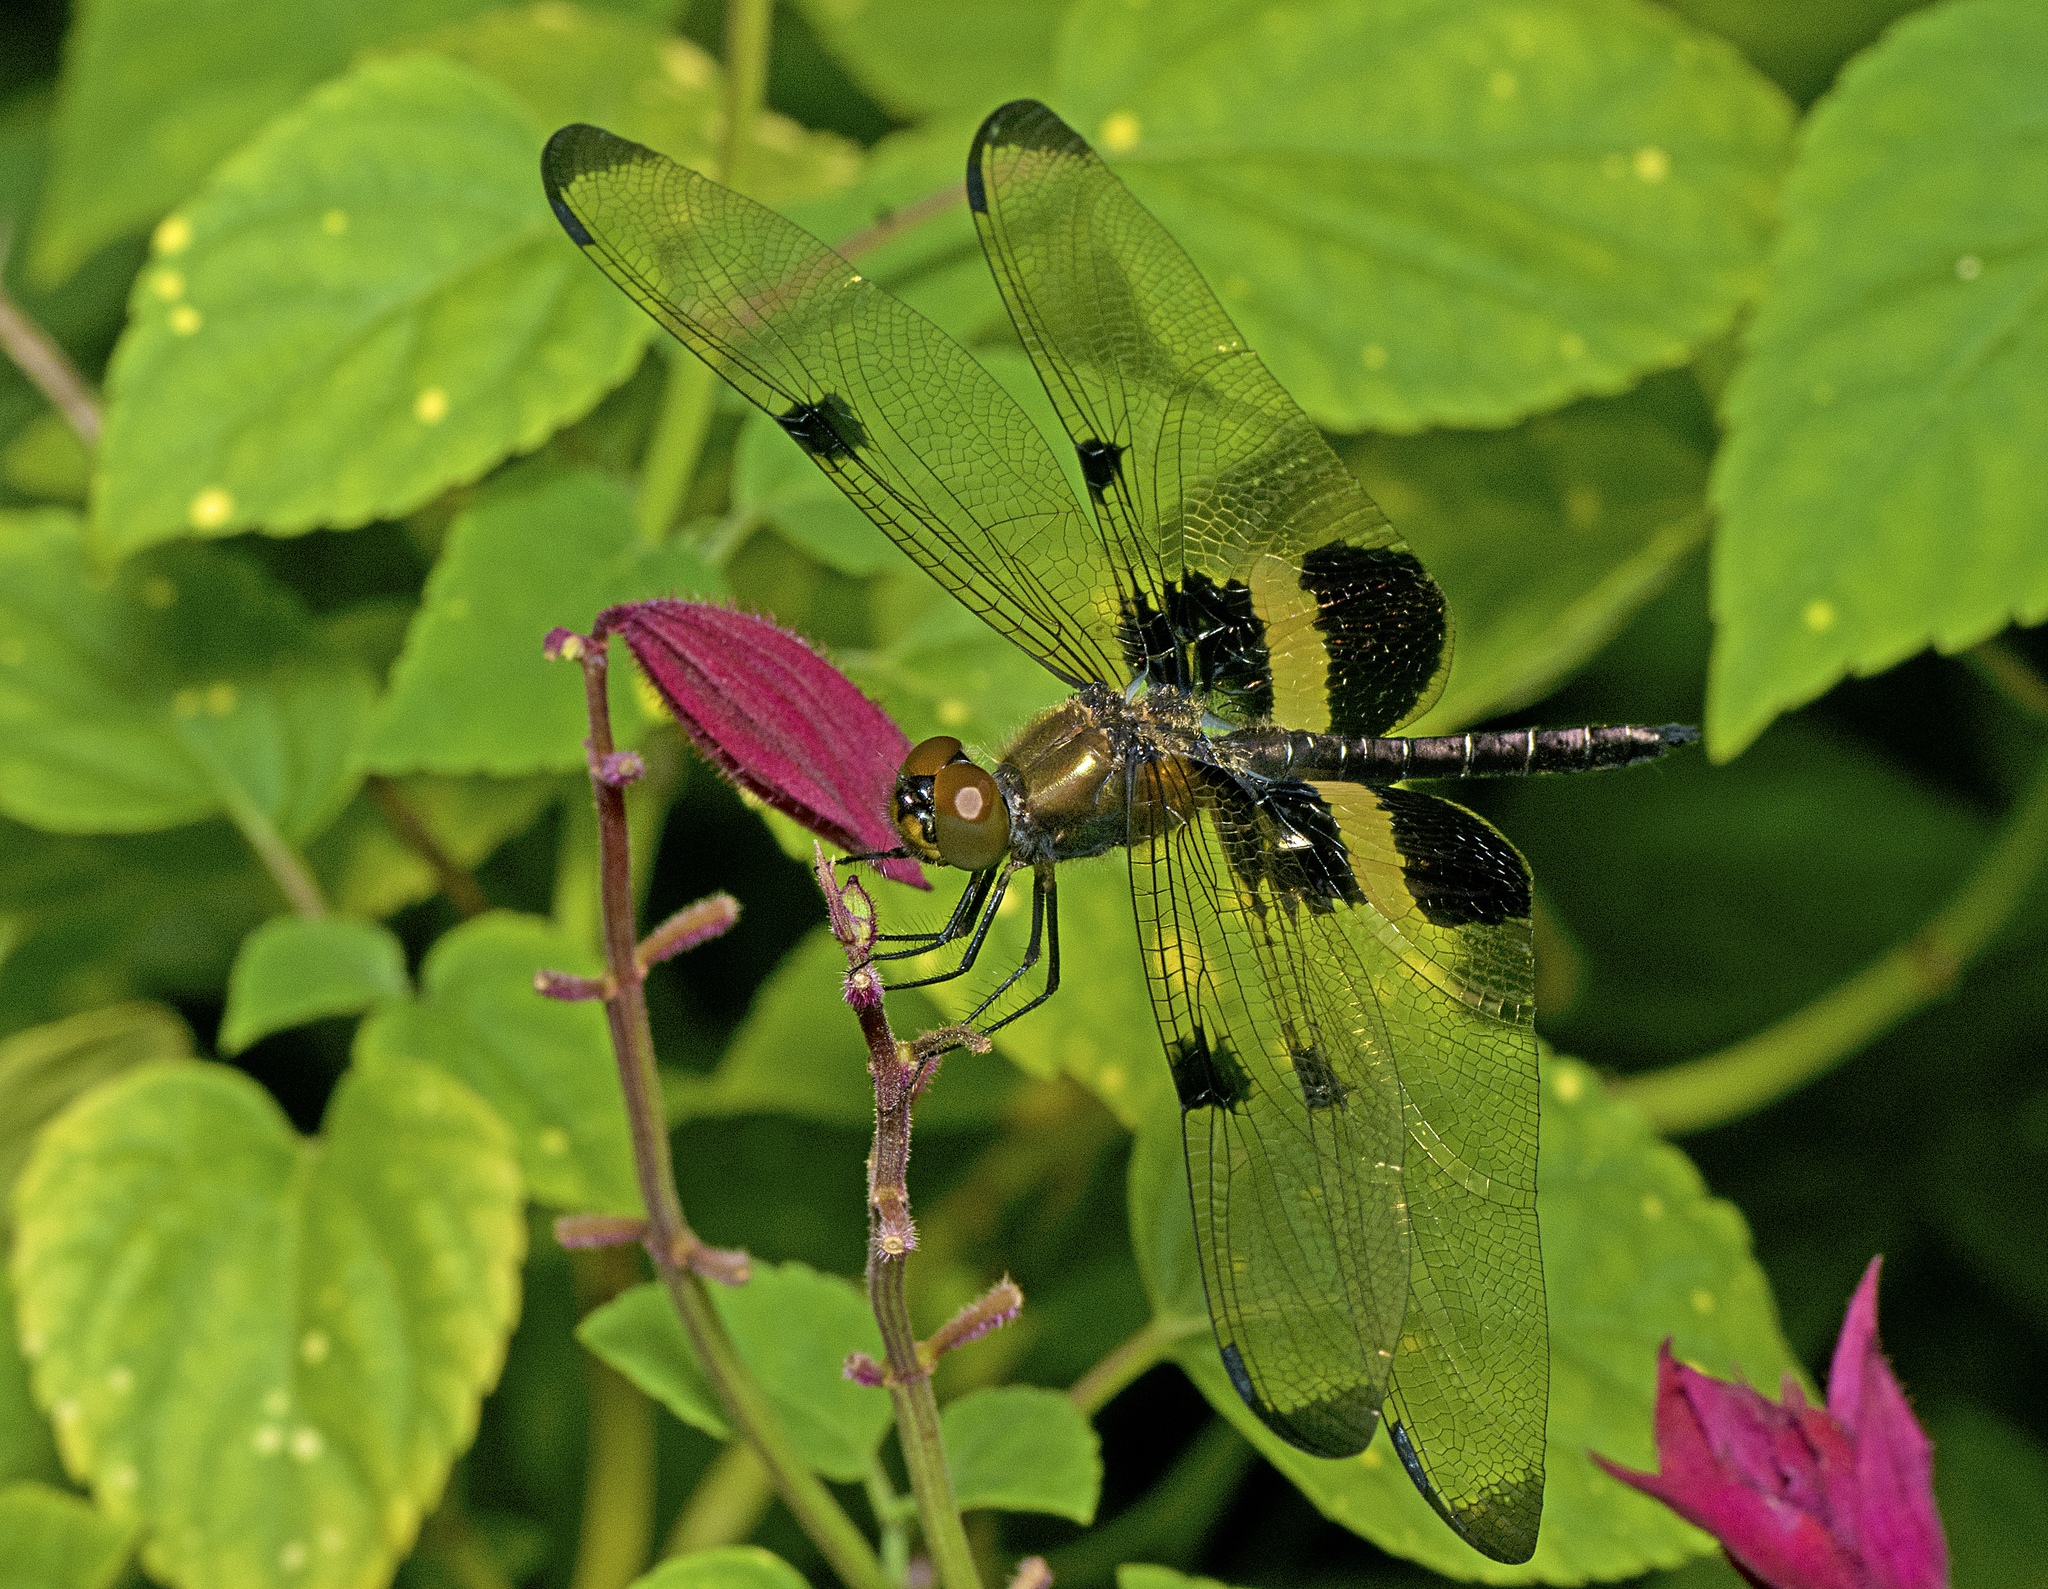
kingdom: Animalia
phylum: Arthropoda
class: Insecta
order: Odonata
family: Libellulidae
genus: Rhyothemis
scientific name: Rhyothemis phyllis
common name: Yellow-barred flutterer
